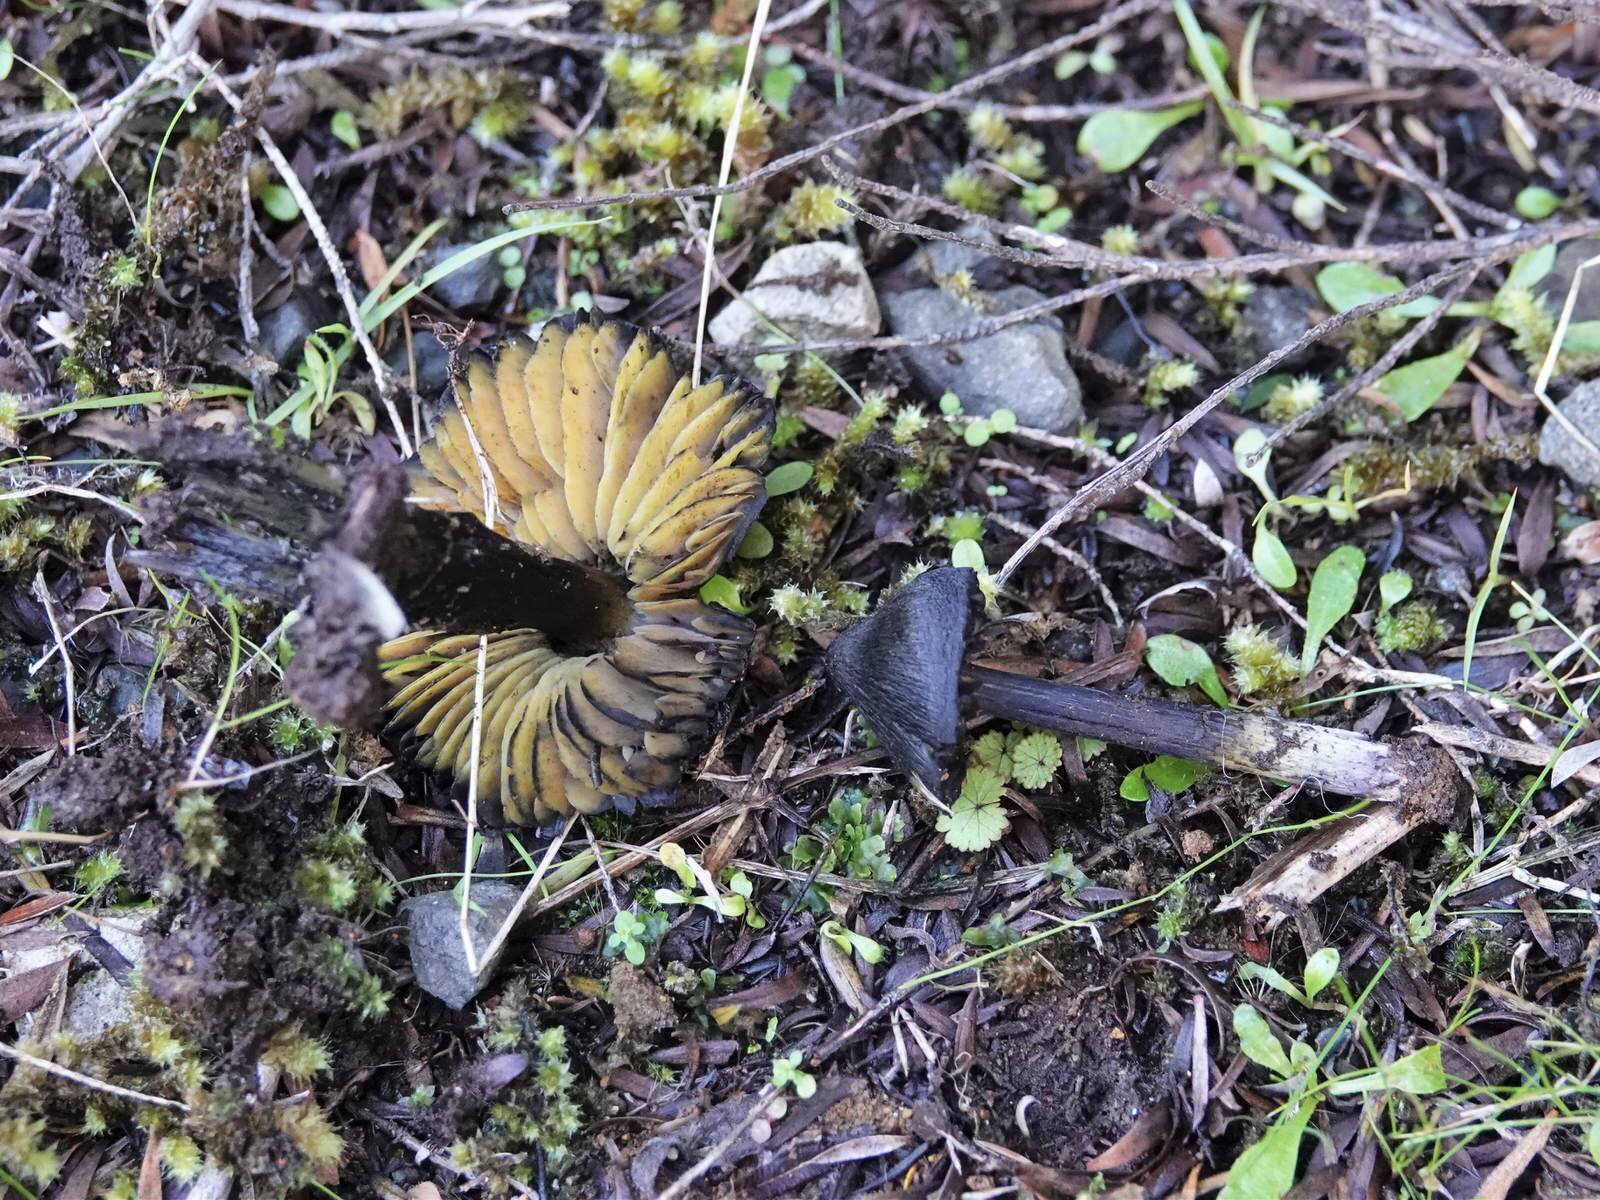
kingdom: Fungi
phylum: Basidiomycota
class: Agaricomycetes
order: Agaricales
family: Hygrophoraceae
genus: Hygrocybe
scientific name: Hygrocybe astatogala
